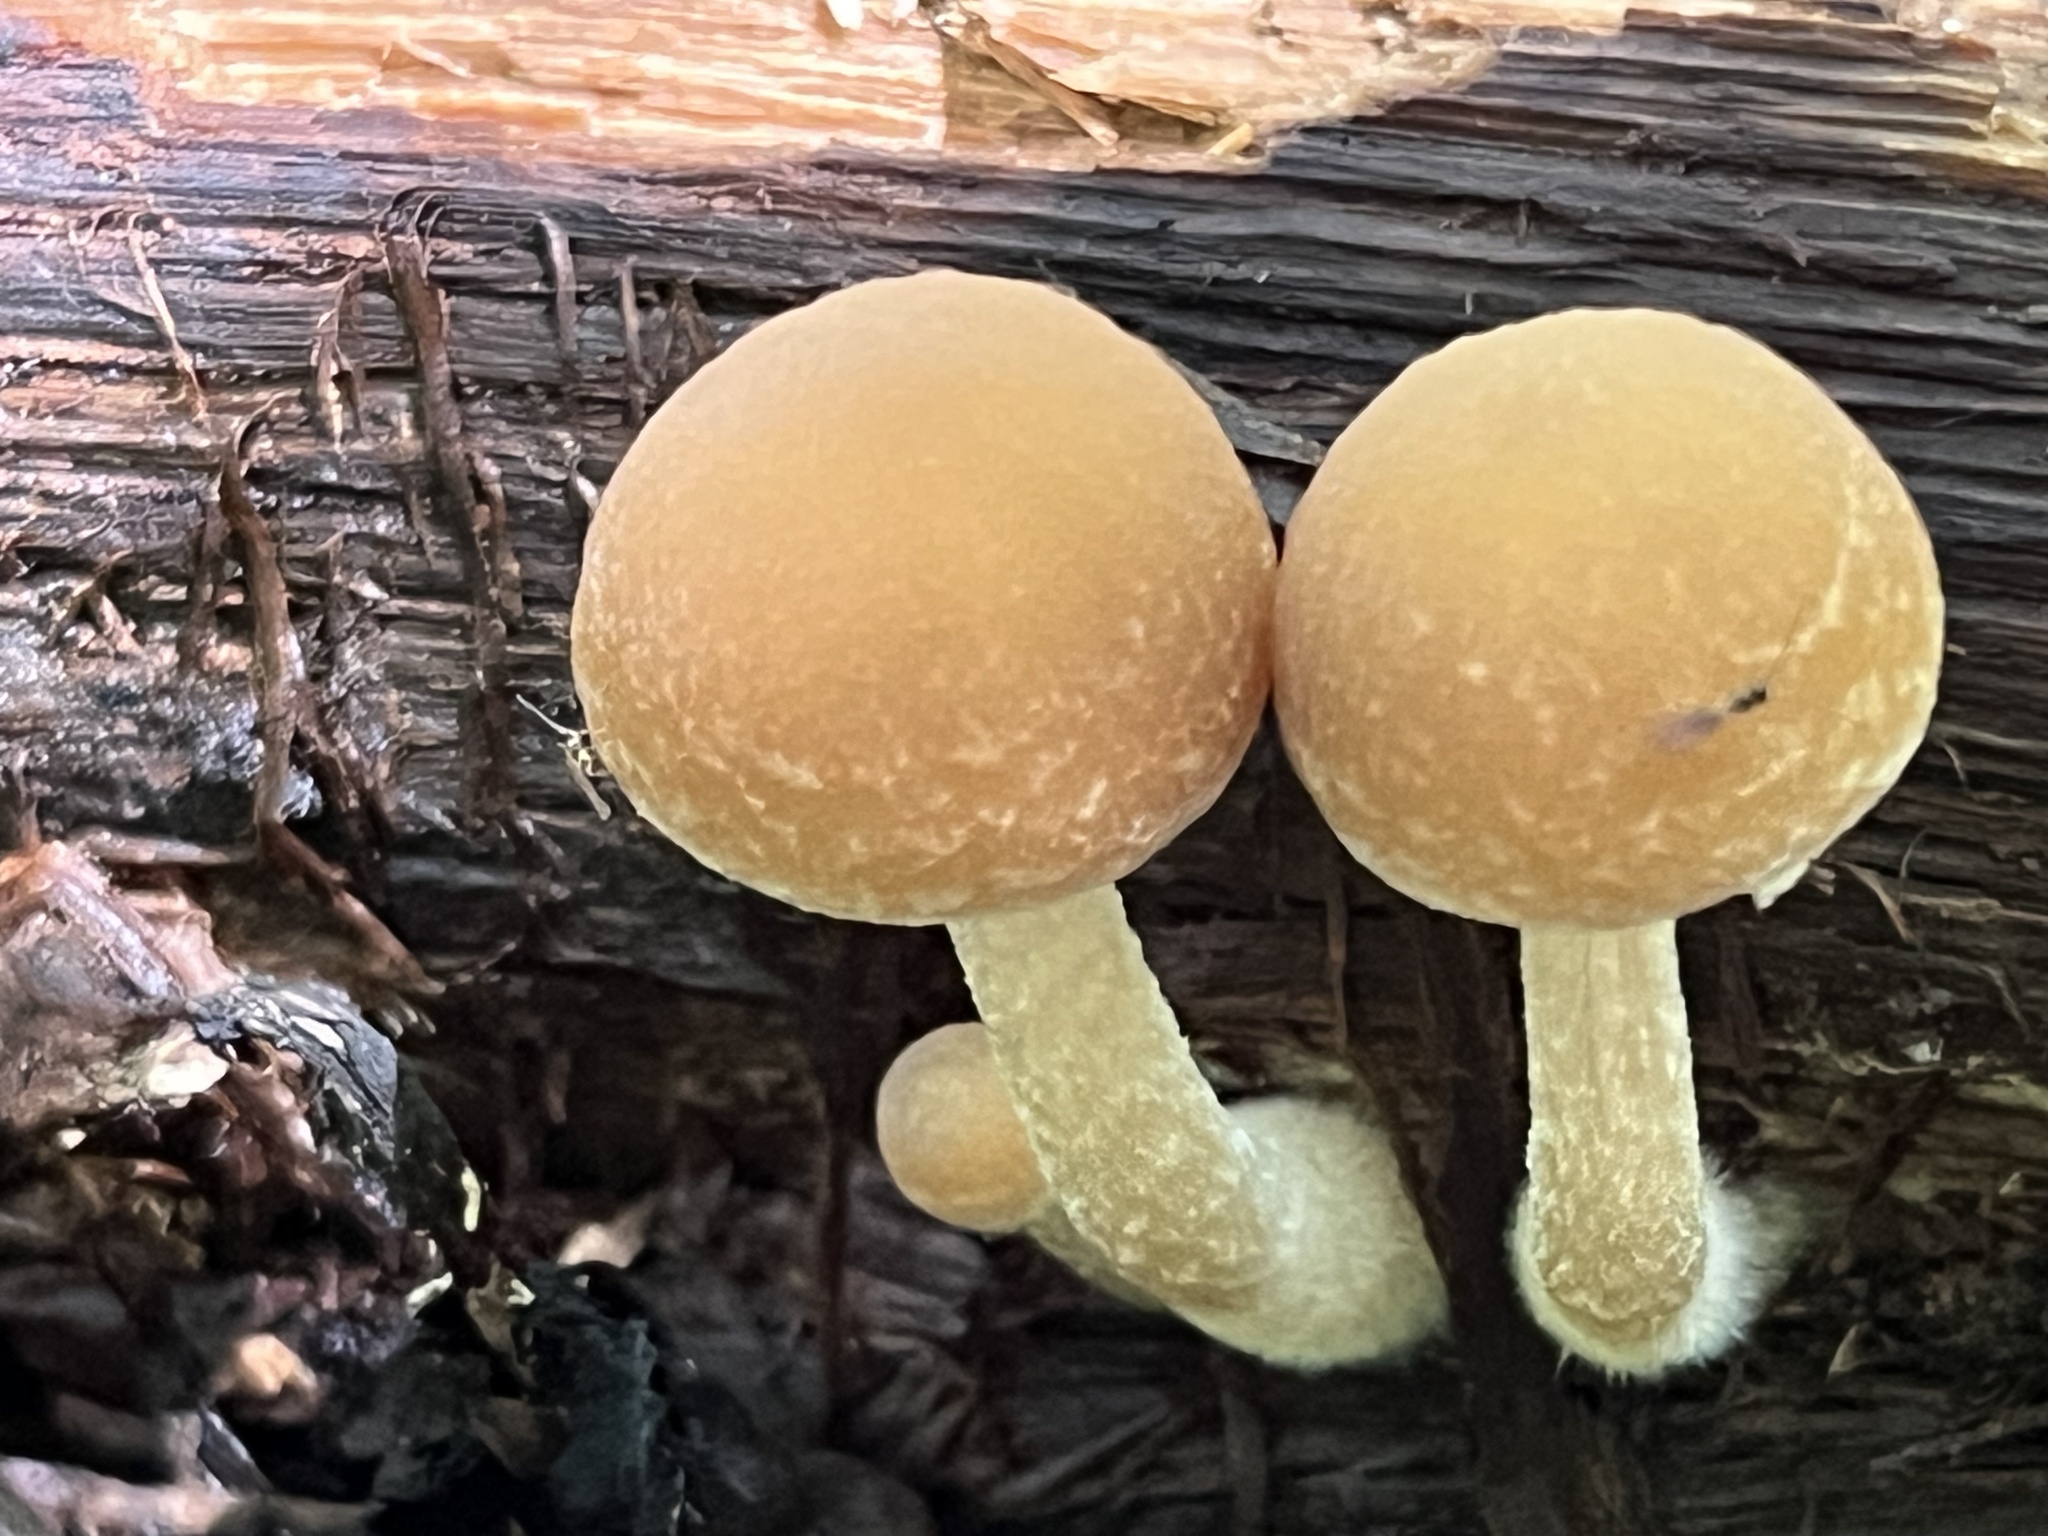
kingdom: Fungi
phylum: Basidiomycota
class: Agaricomycetes
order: Agaricales
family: Psathyrellaceae
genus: Typhrasa
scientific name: Typhrasa gossypina
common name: Wrinkled psathyrella
